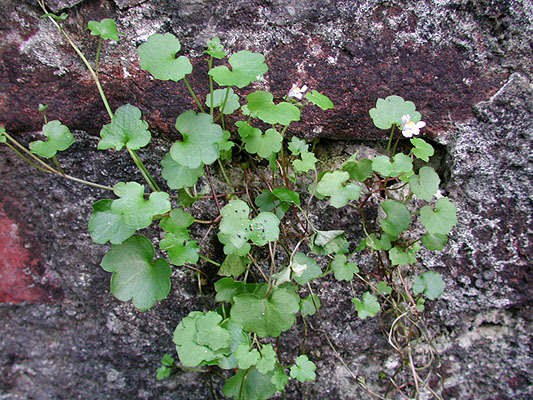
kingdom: Plantae
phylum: Tracheophyta
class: Magnoliopsida
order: Lamiales
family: Plantaginaceae
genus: Cymbalaria
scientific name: Cymbalaria muralis
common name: Ivy-leaved toadflax
